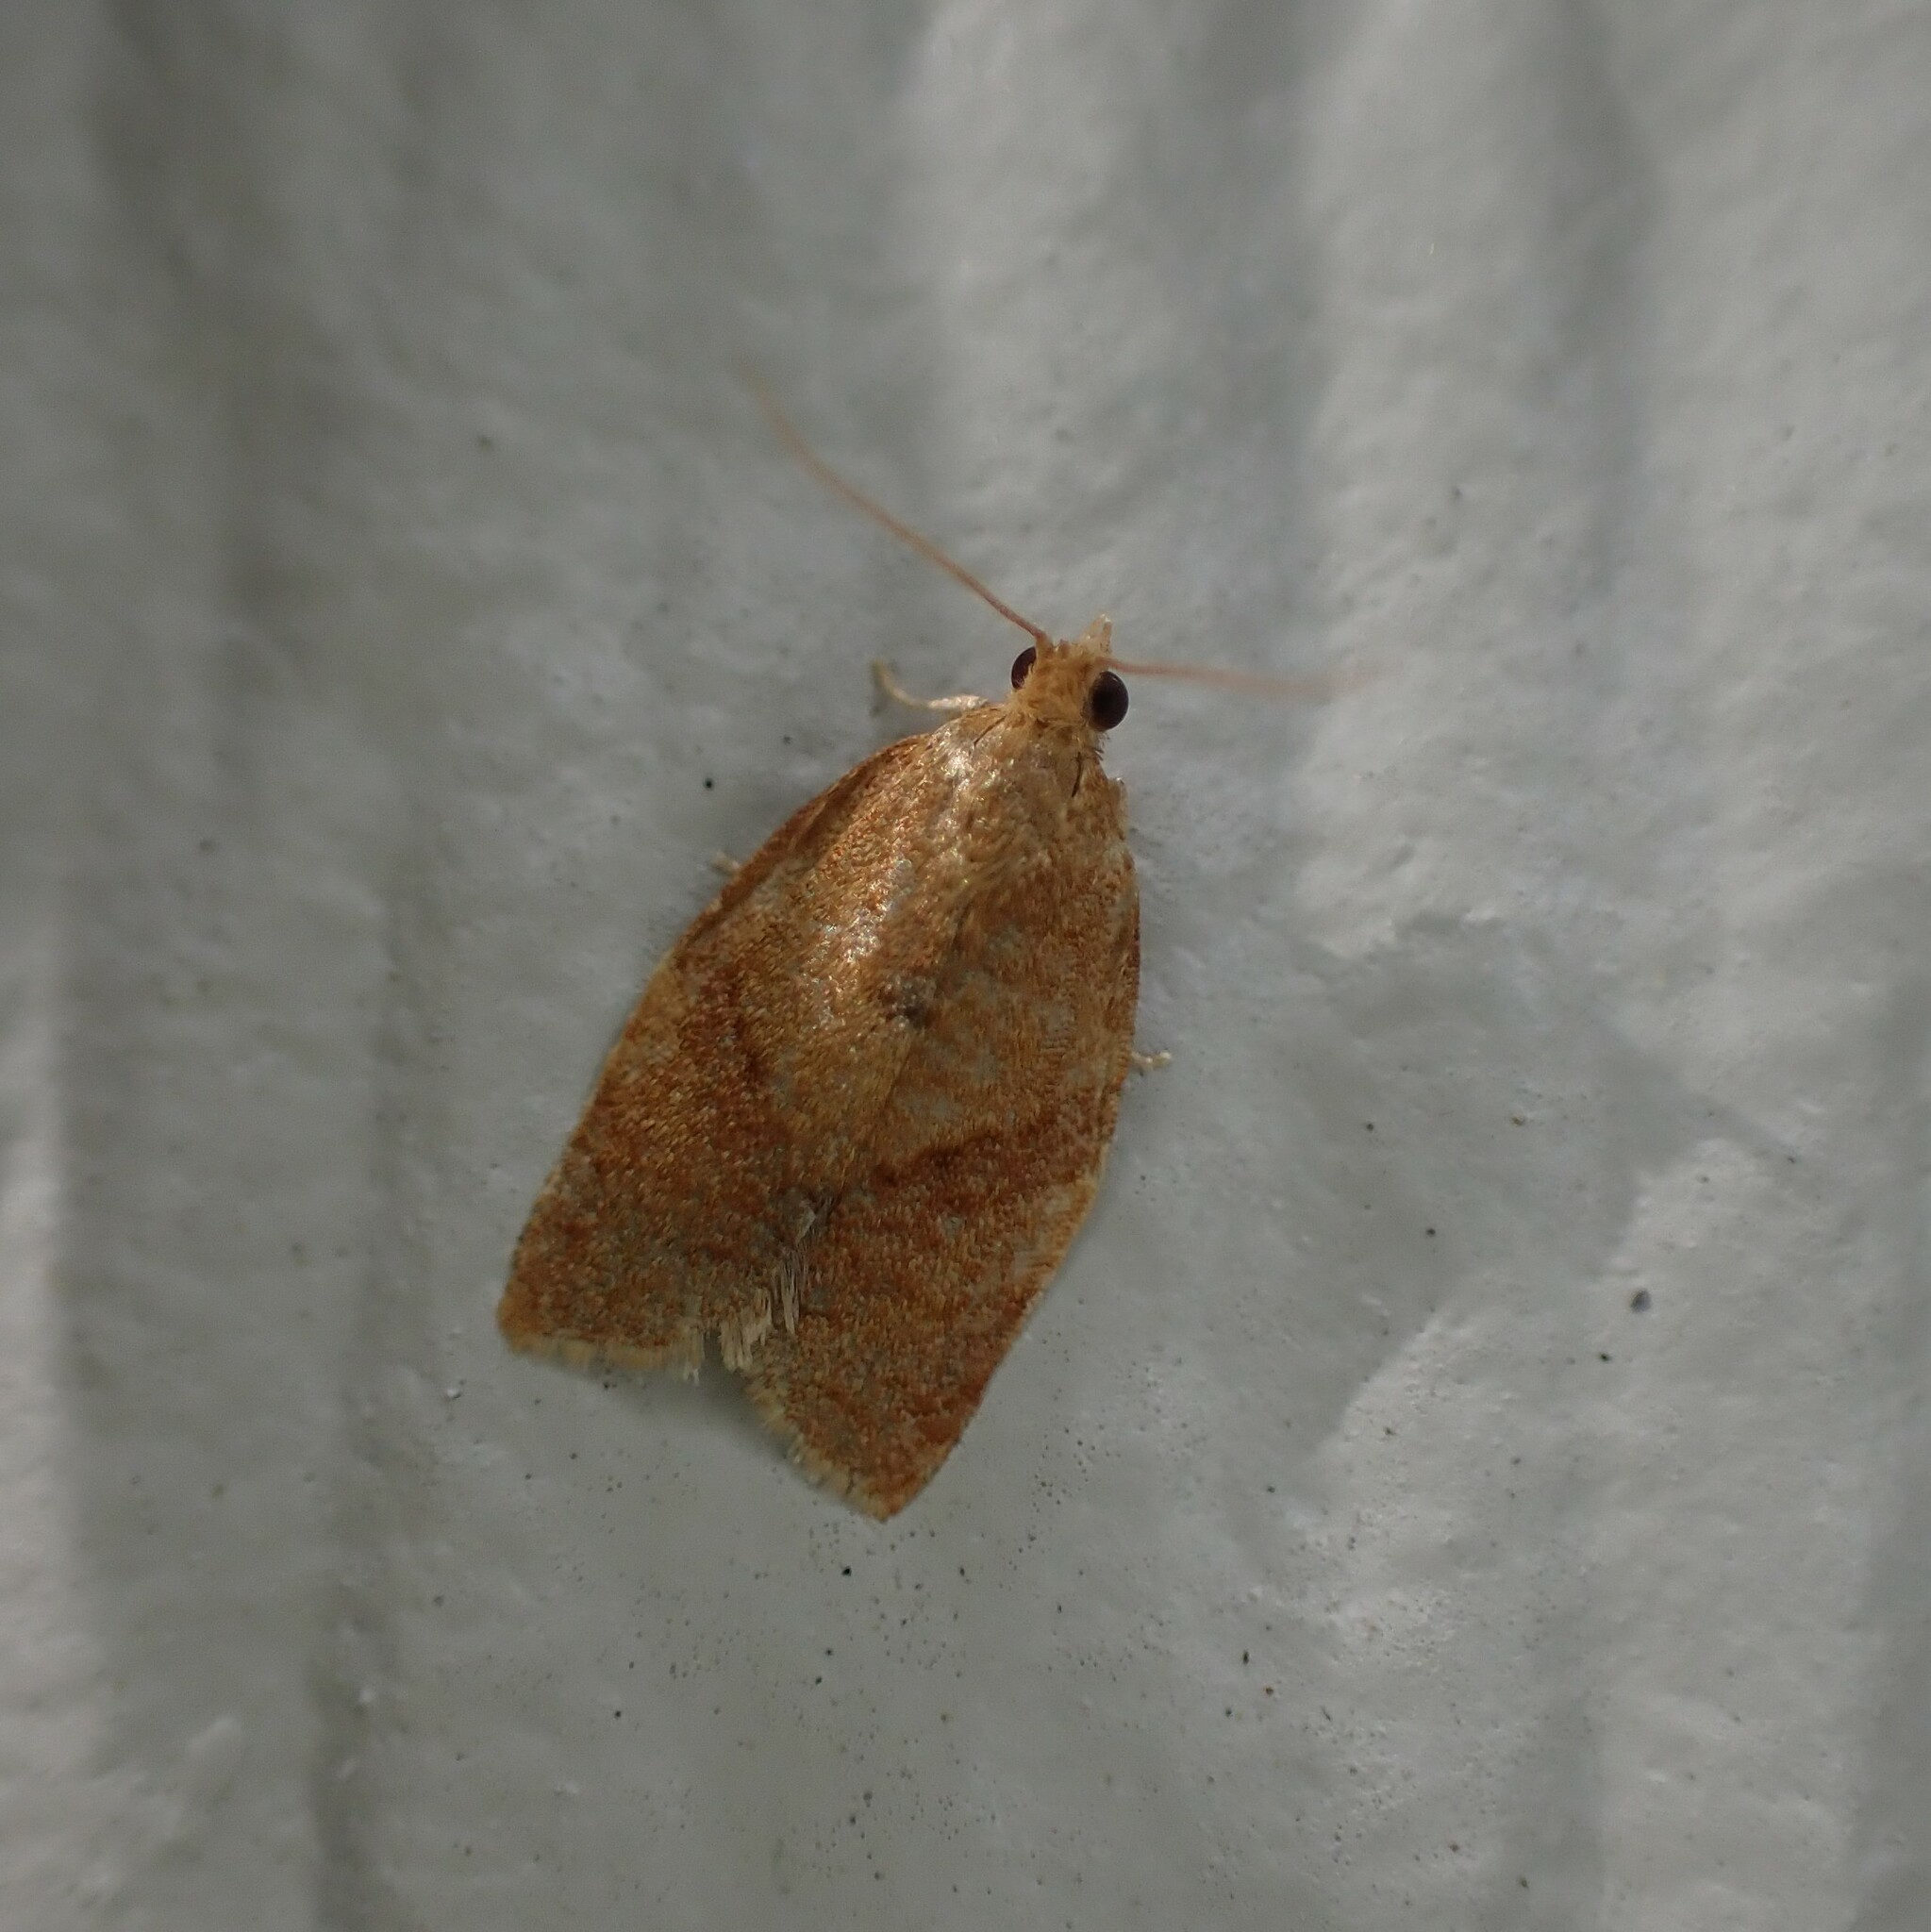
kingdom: Animalia
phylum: Arthropoda
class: Insecta
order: Lepidoptera
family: Tortricidae
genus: Clepsis
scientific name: Clepsis consimilana
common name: Privet tortrix
